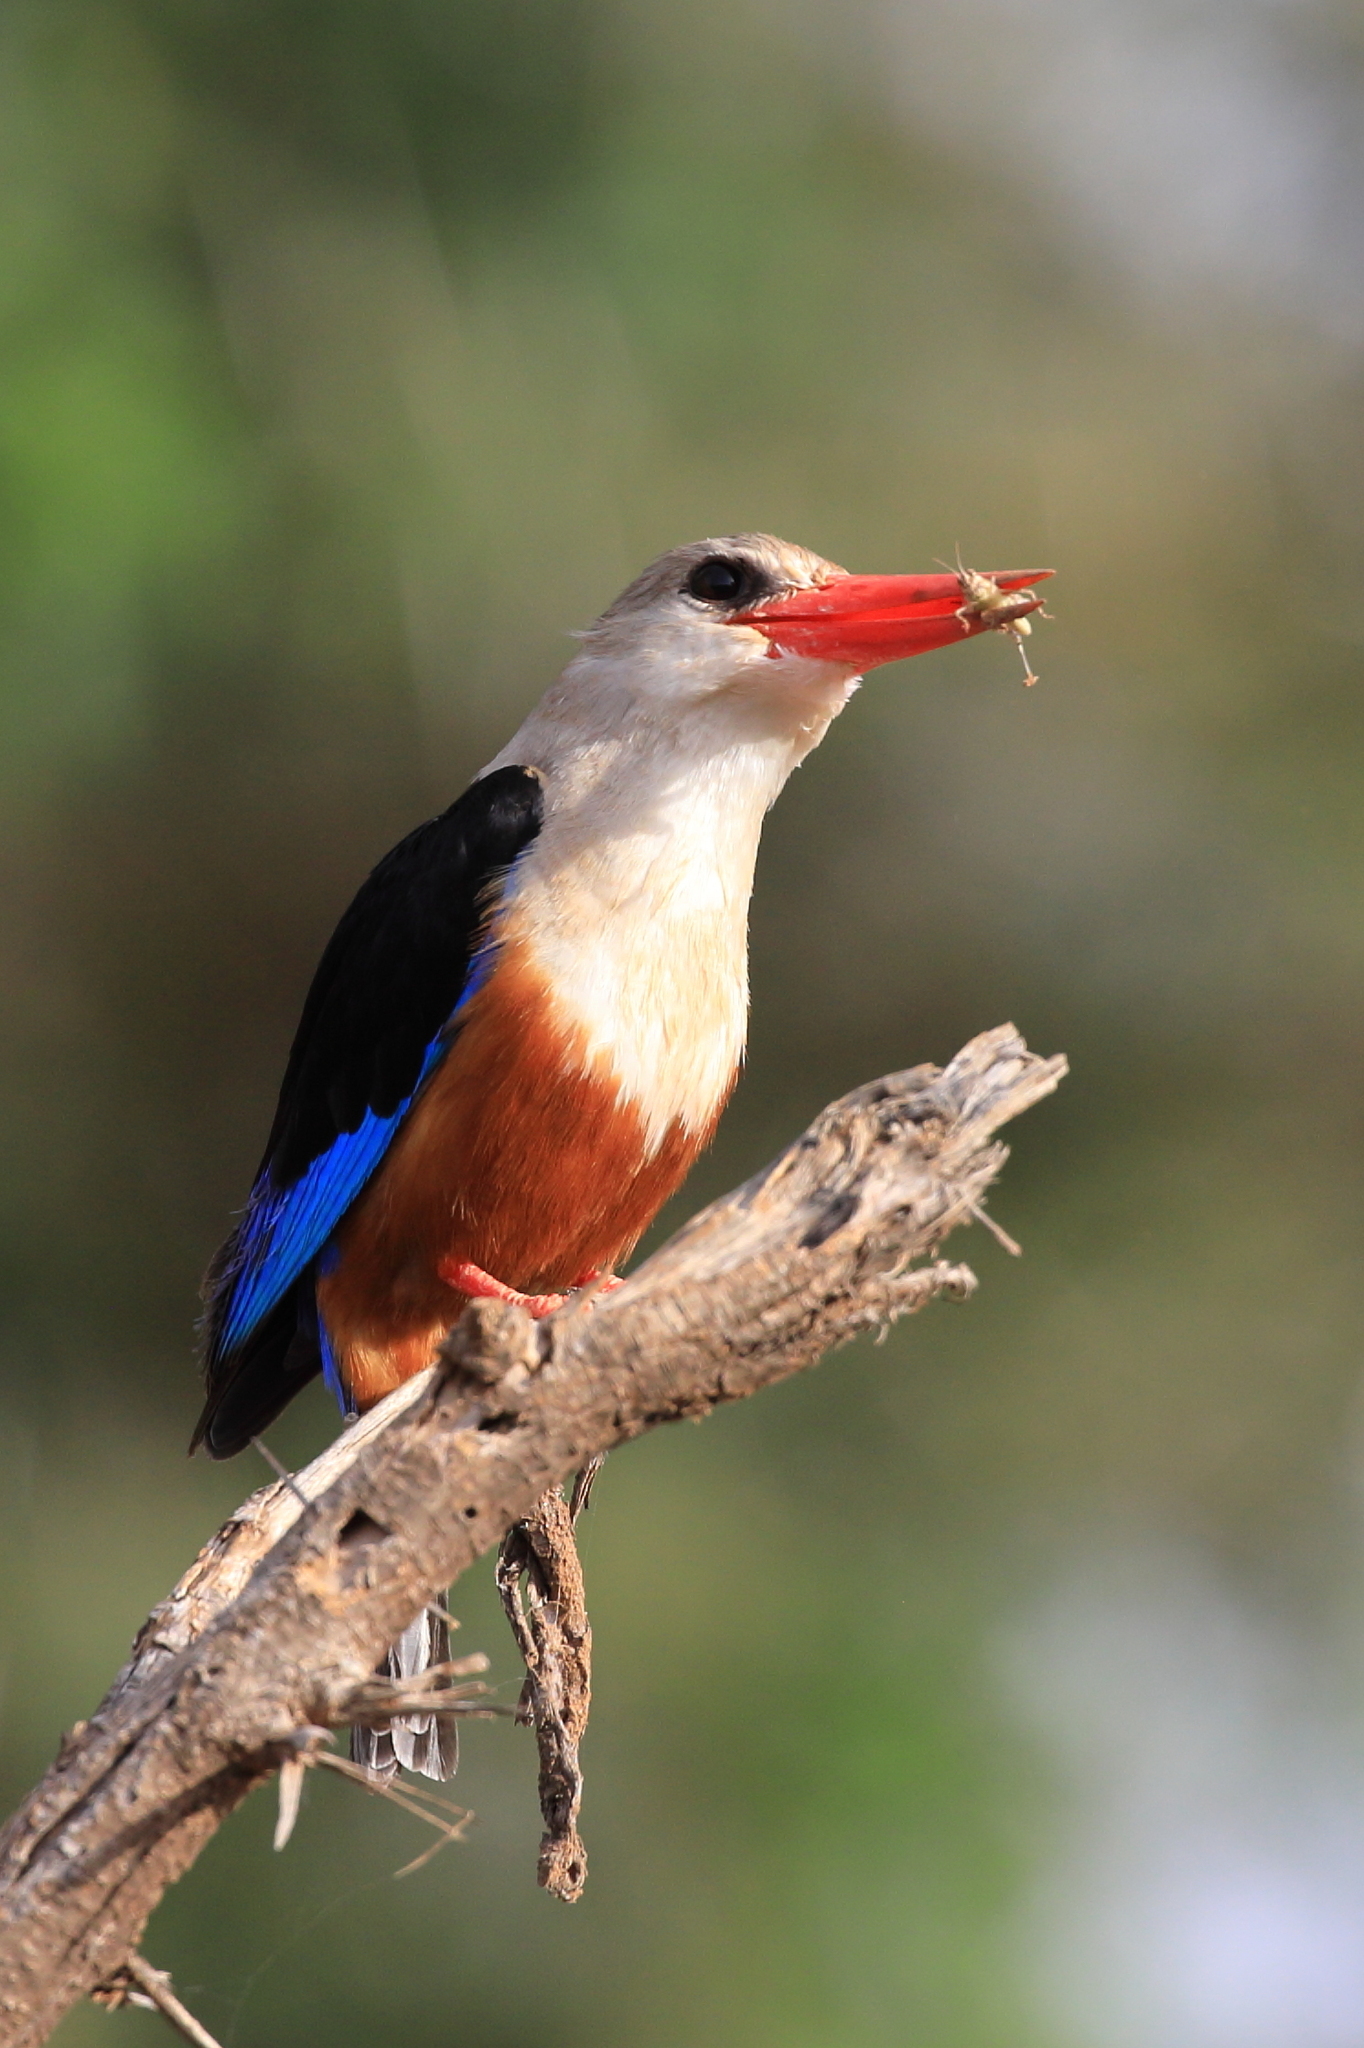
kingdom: Animalia
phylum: Chordata
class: Aves
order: Coraciiformes
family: Alcedinidae
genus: Halcyon
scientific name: Halcyon leucocephala
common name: Grey-headed kingfisher
